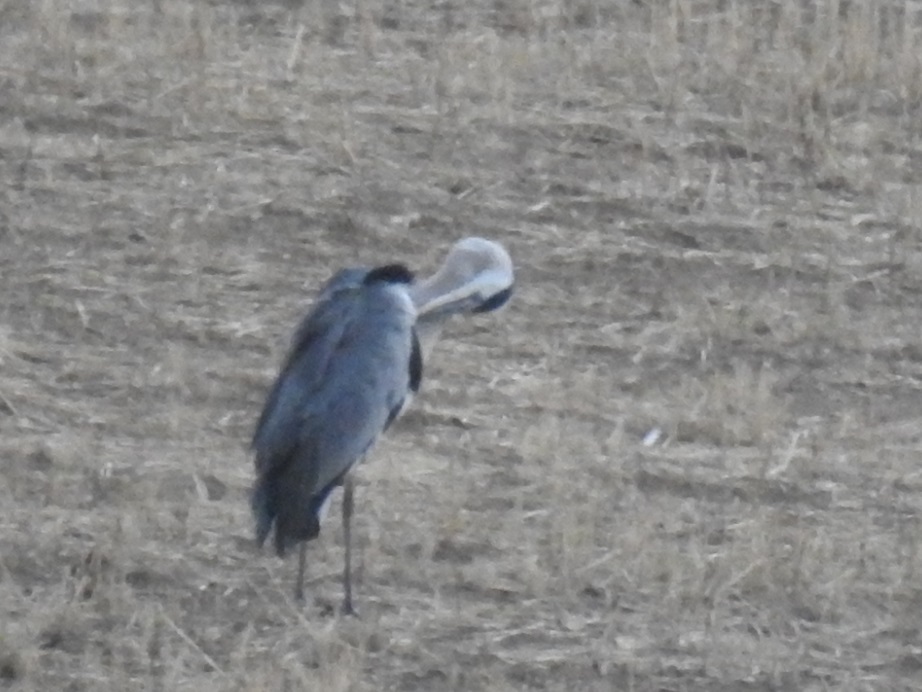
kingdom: Animalia
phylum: Chordata
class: Aves
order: Pelecaniformes
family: Ardeidae
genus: Ardea
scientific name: Ardea cinerea
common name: Grey heron
